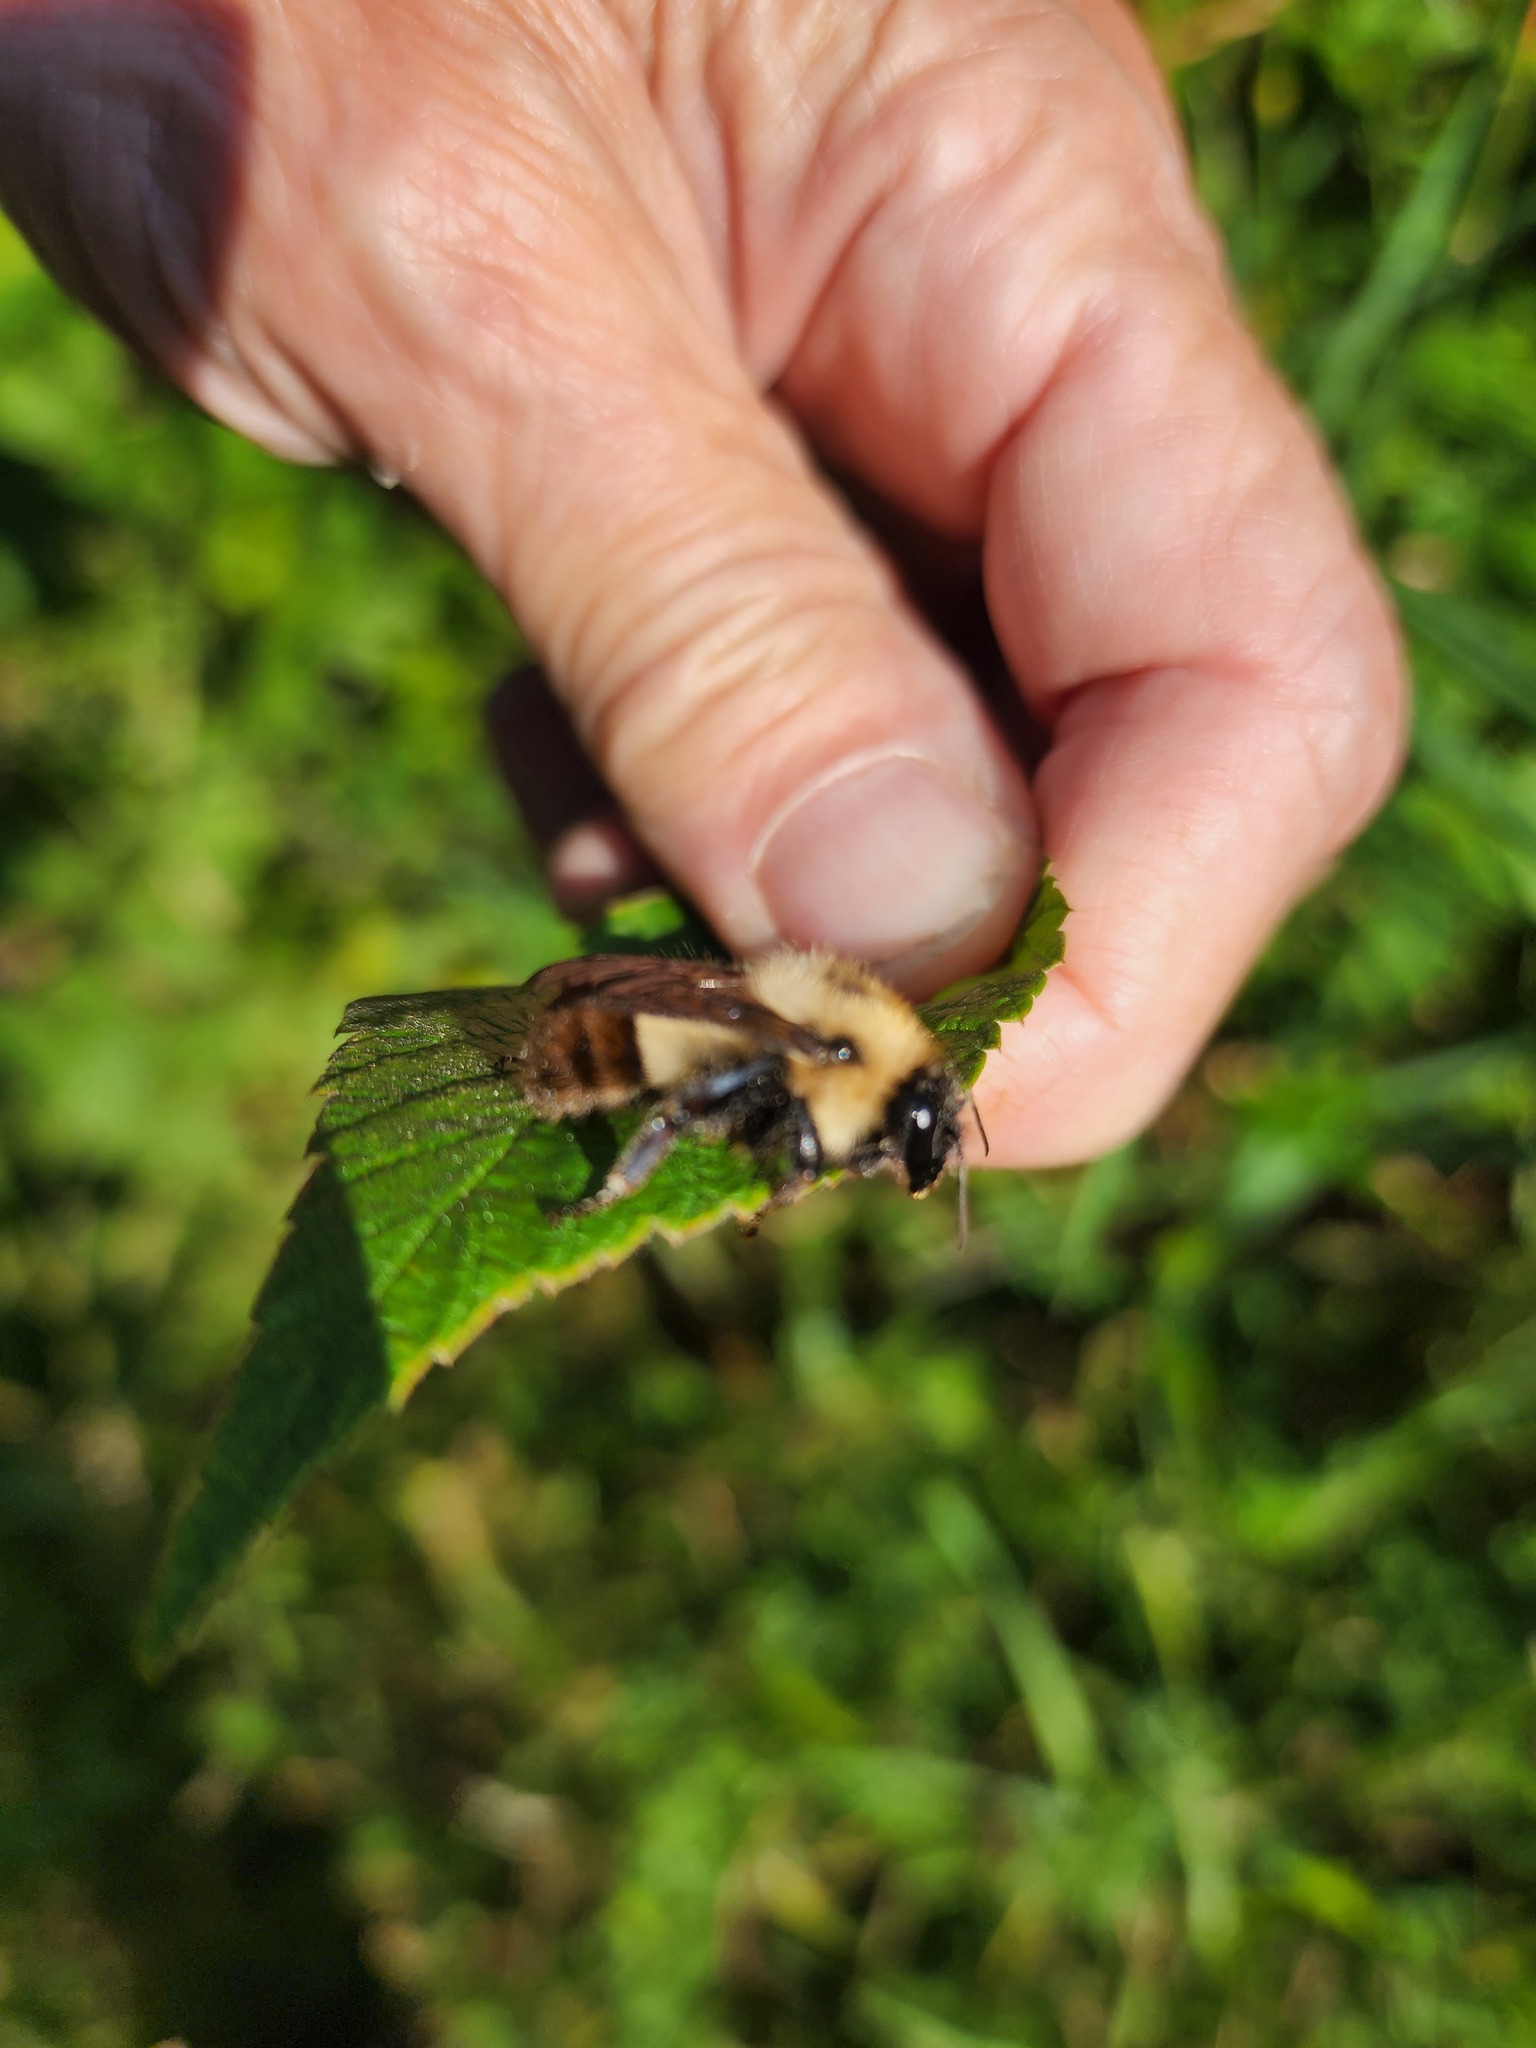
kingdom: Animalia
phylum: Arthropoda
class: Insecta
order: Hymenoptera
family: Apidae
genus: Pyrobombus
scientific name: Pyrobombus
